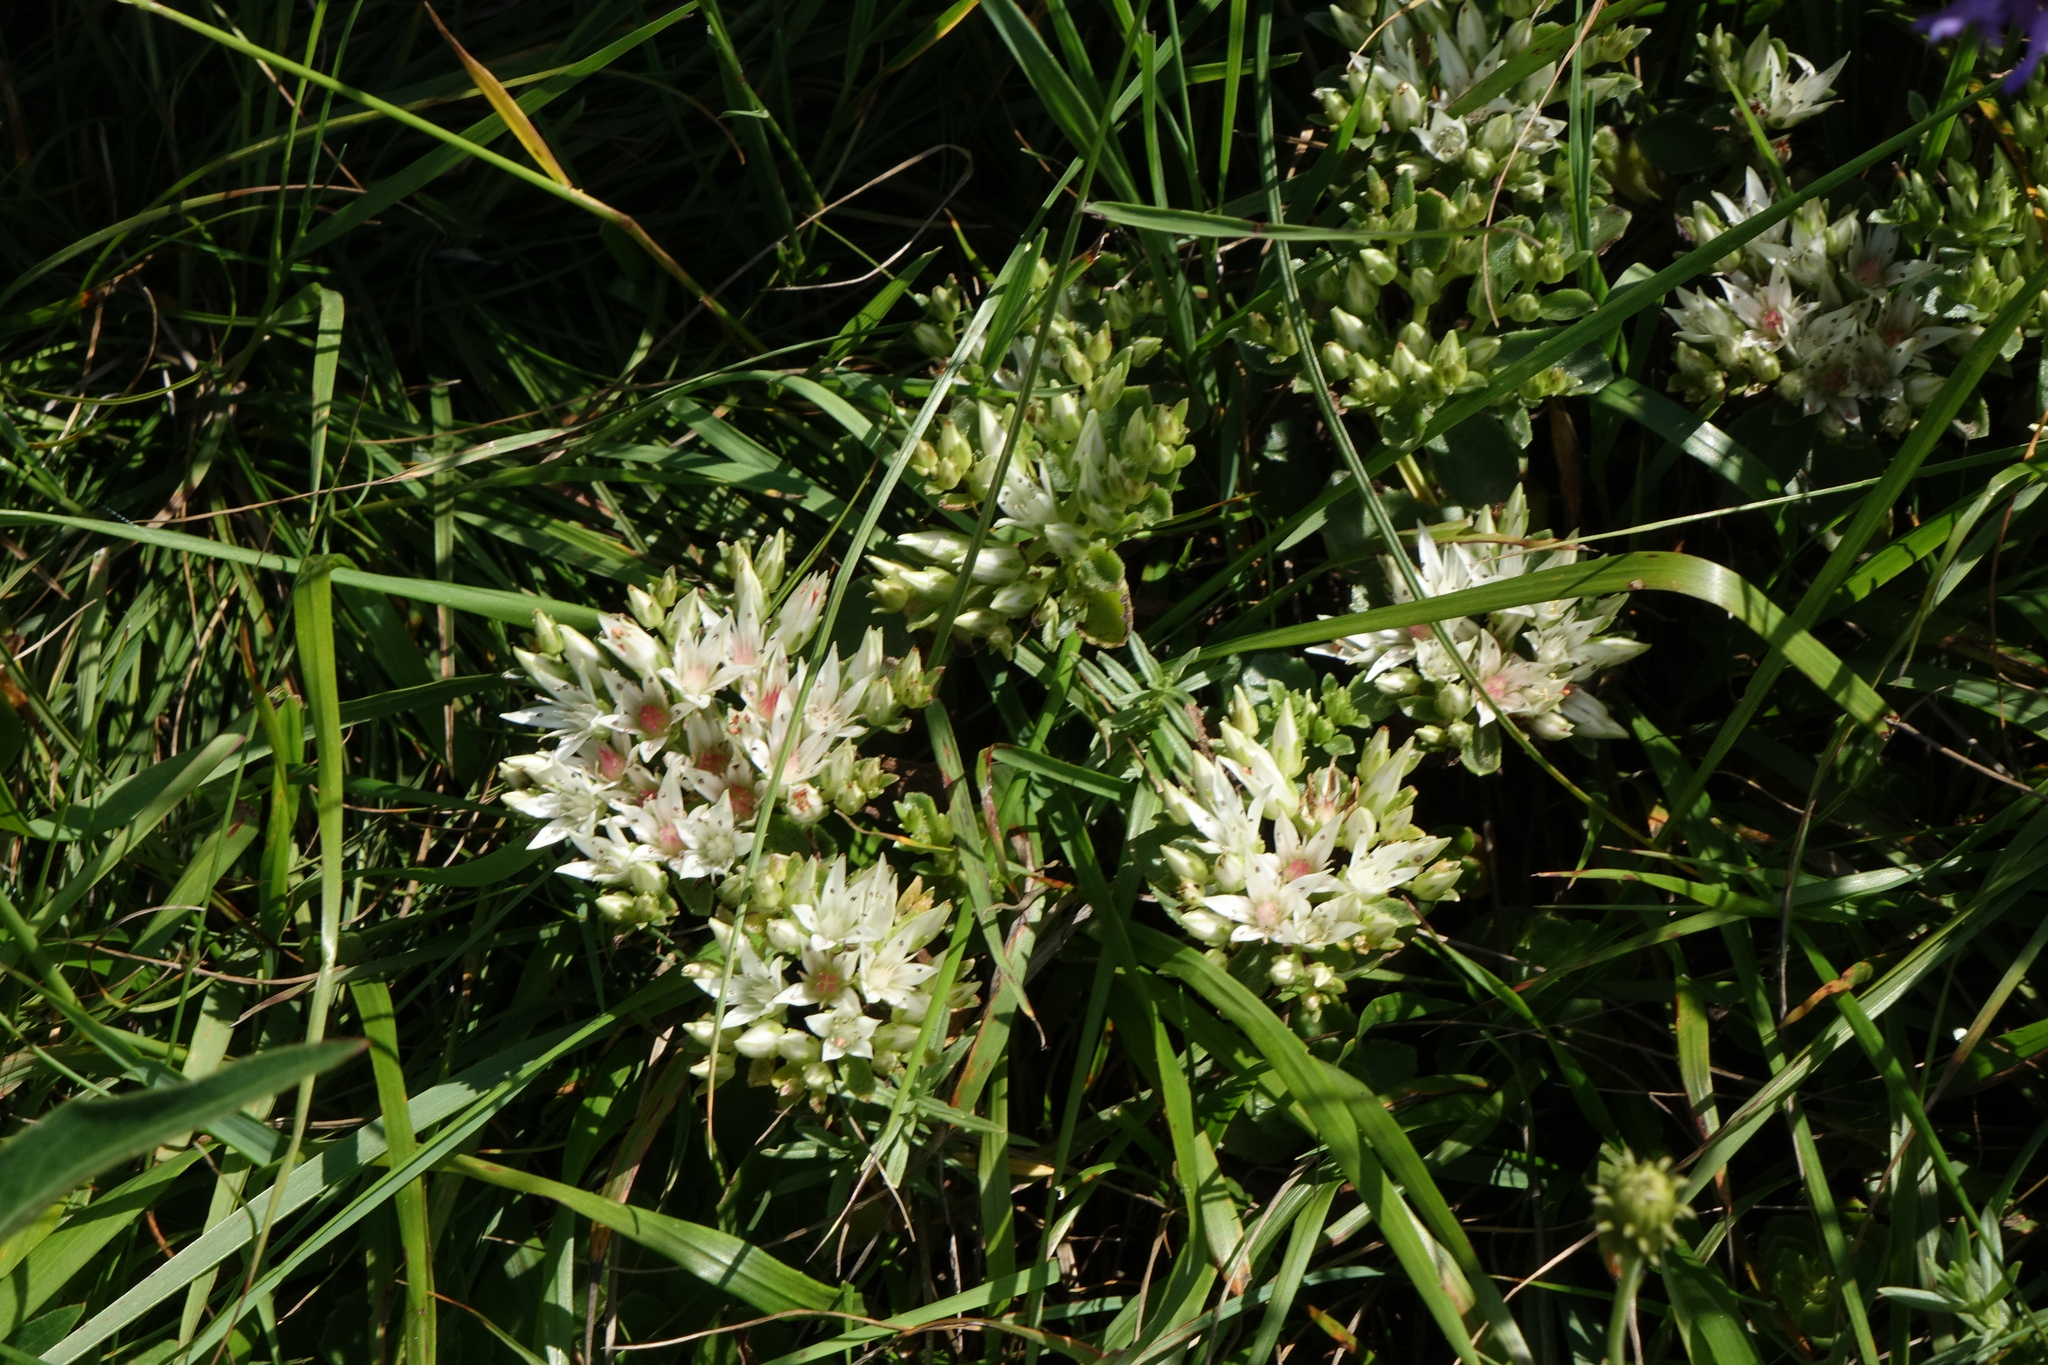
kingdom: Plantae
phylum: Tracheophyta
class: Magnoliopsida
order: Saxifragales
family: Crassulaceae
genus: Phedimus
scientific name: Phedimus spurius
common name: Caucasian stonecrop
